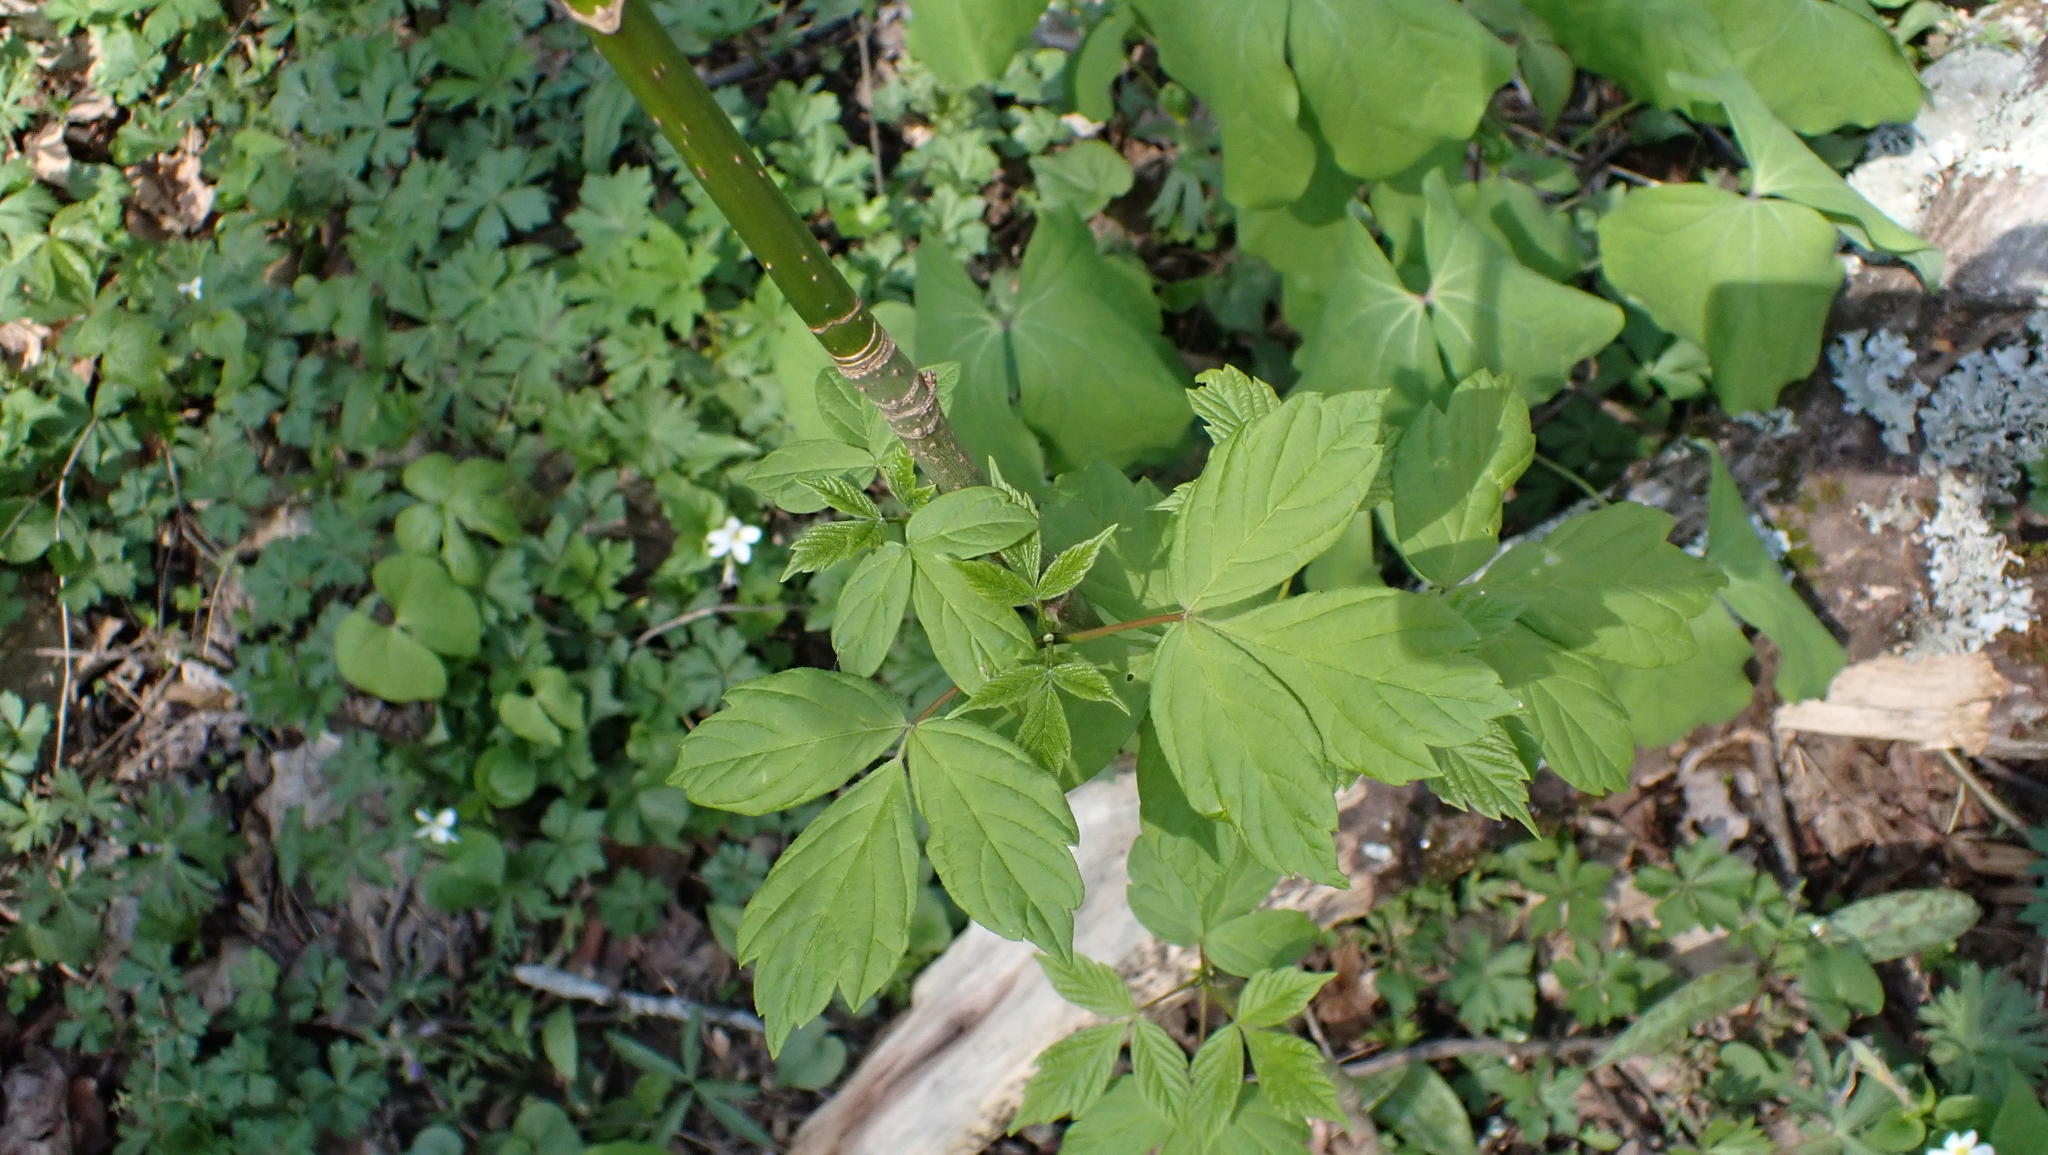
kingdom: Plantae
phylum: Tracheophyta
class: Magnoliopsida
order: Sapindales
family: Sapindaceae
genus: Acer
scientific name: Acer negundo
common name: Ashleaf maple
